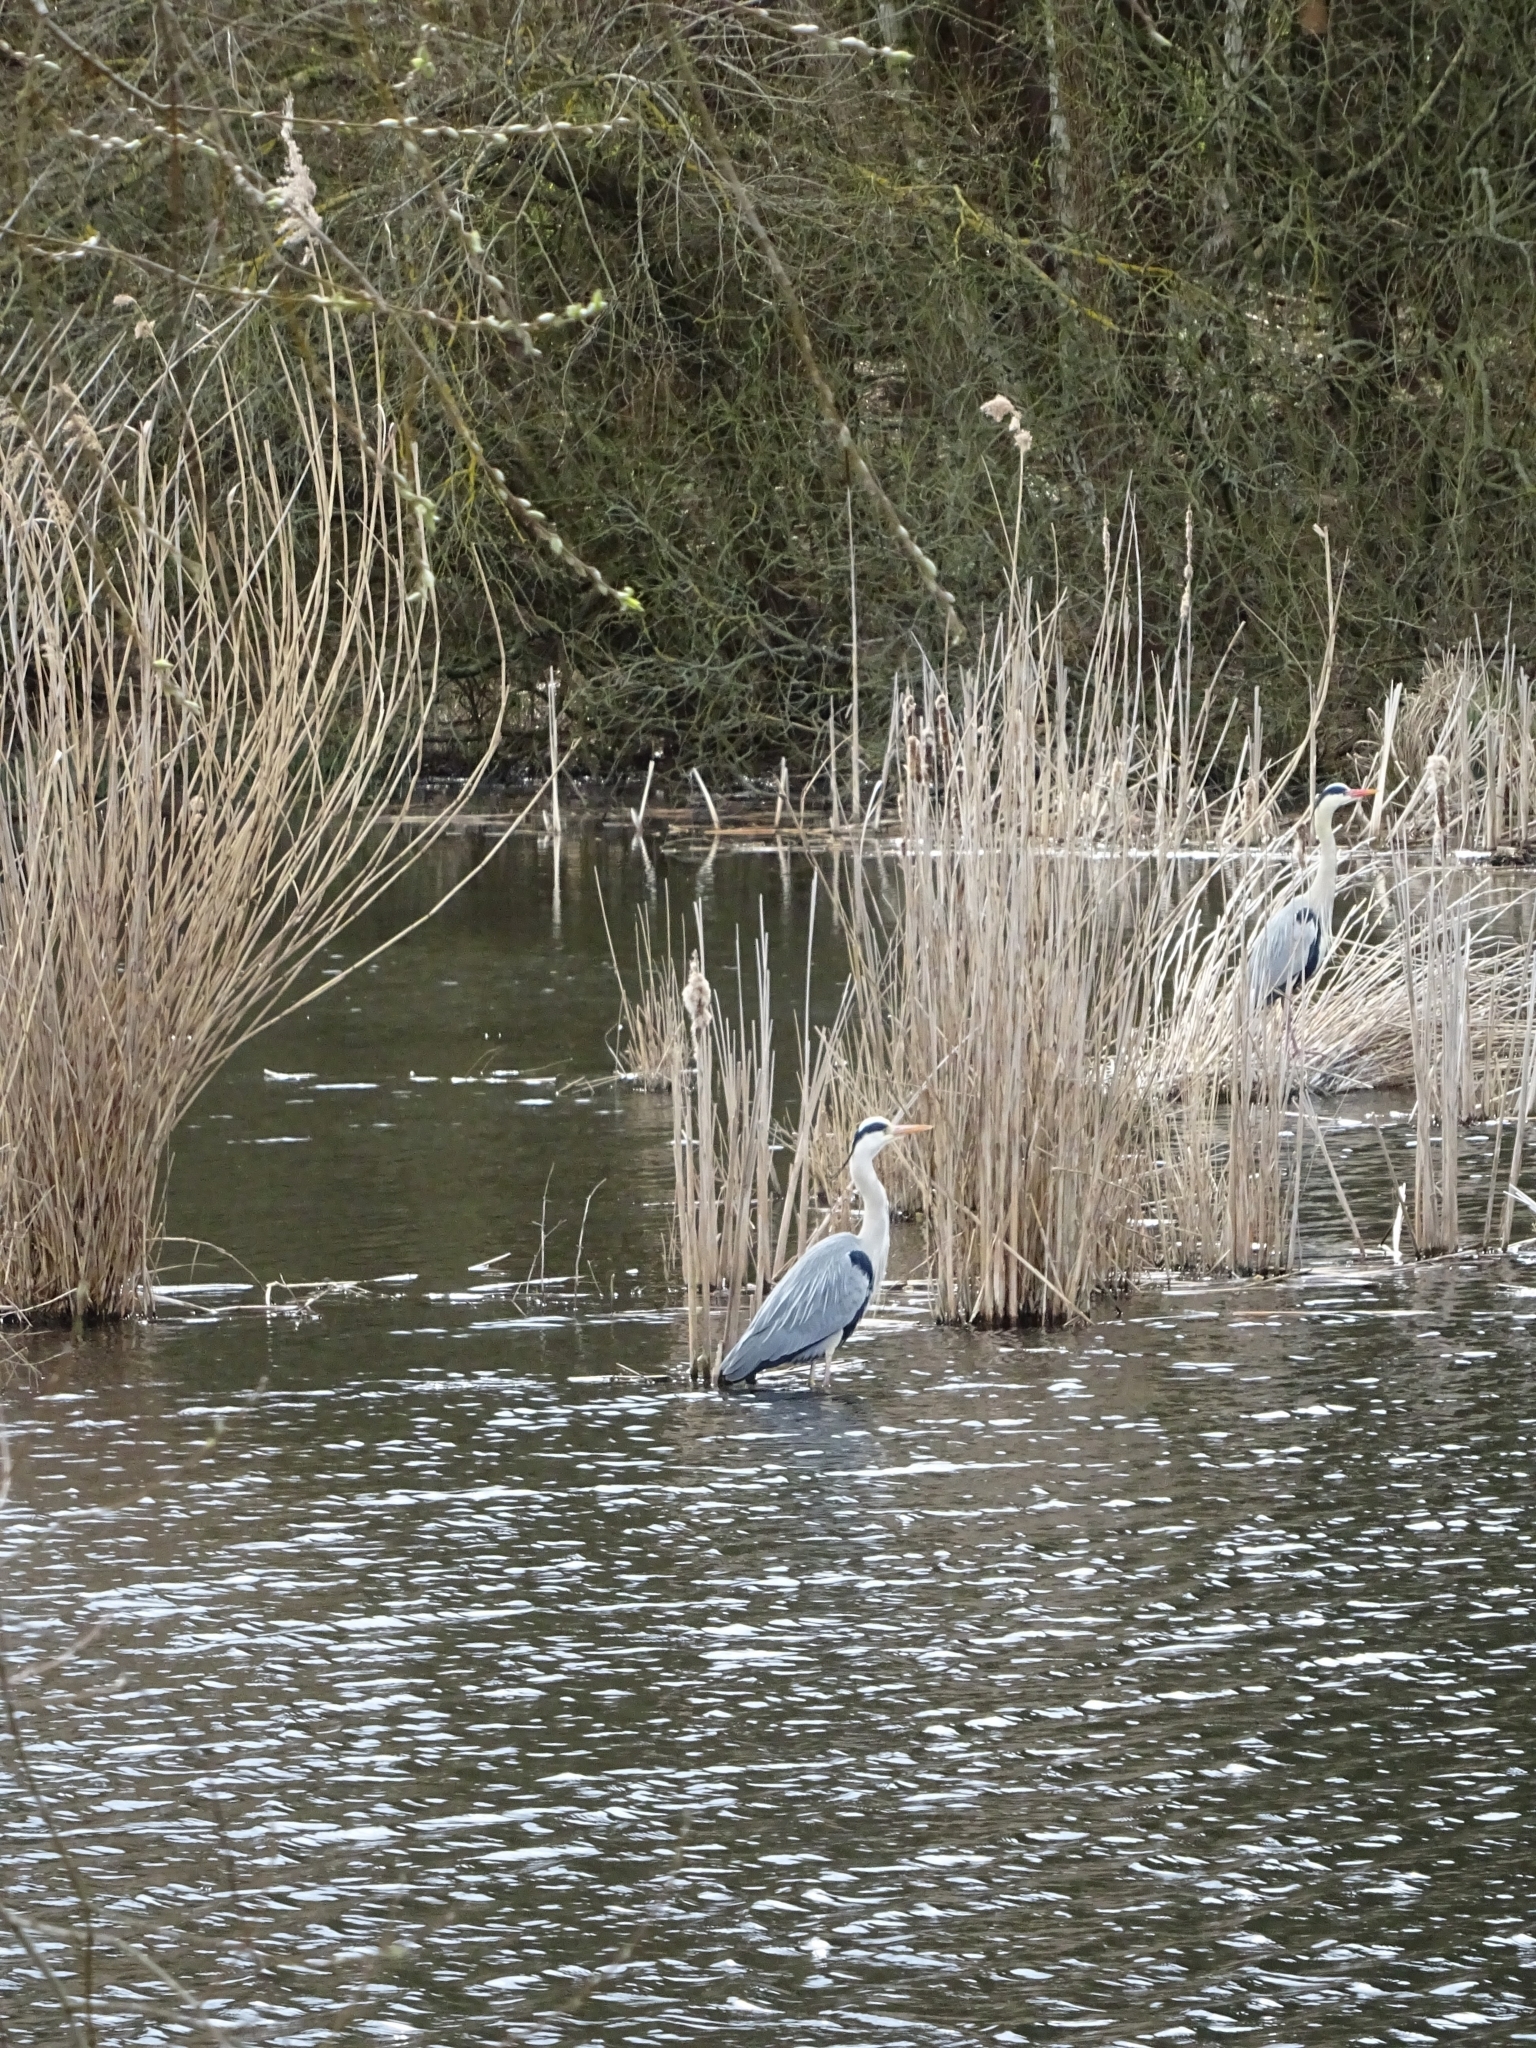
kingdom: Animalia
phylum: Chordata
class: Aves
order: Pelecaniformes
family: Ardeidae
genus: Ardea
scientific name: Ardea cinerea
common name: Grey heron
